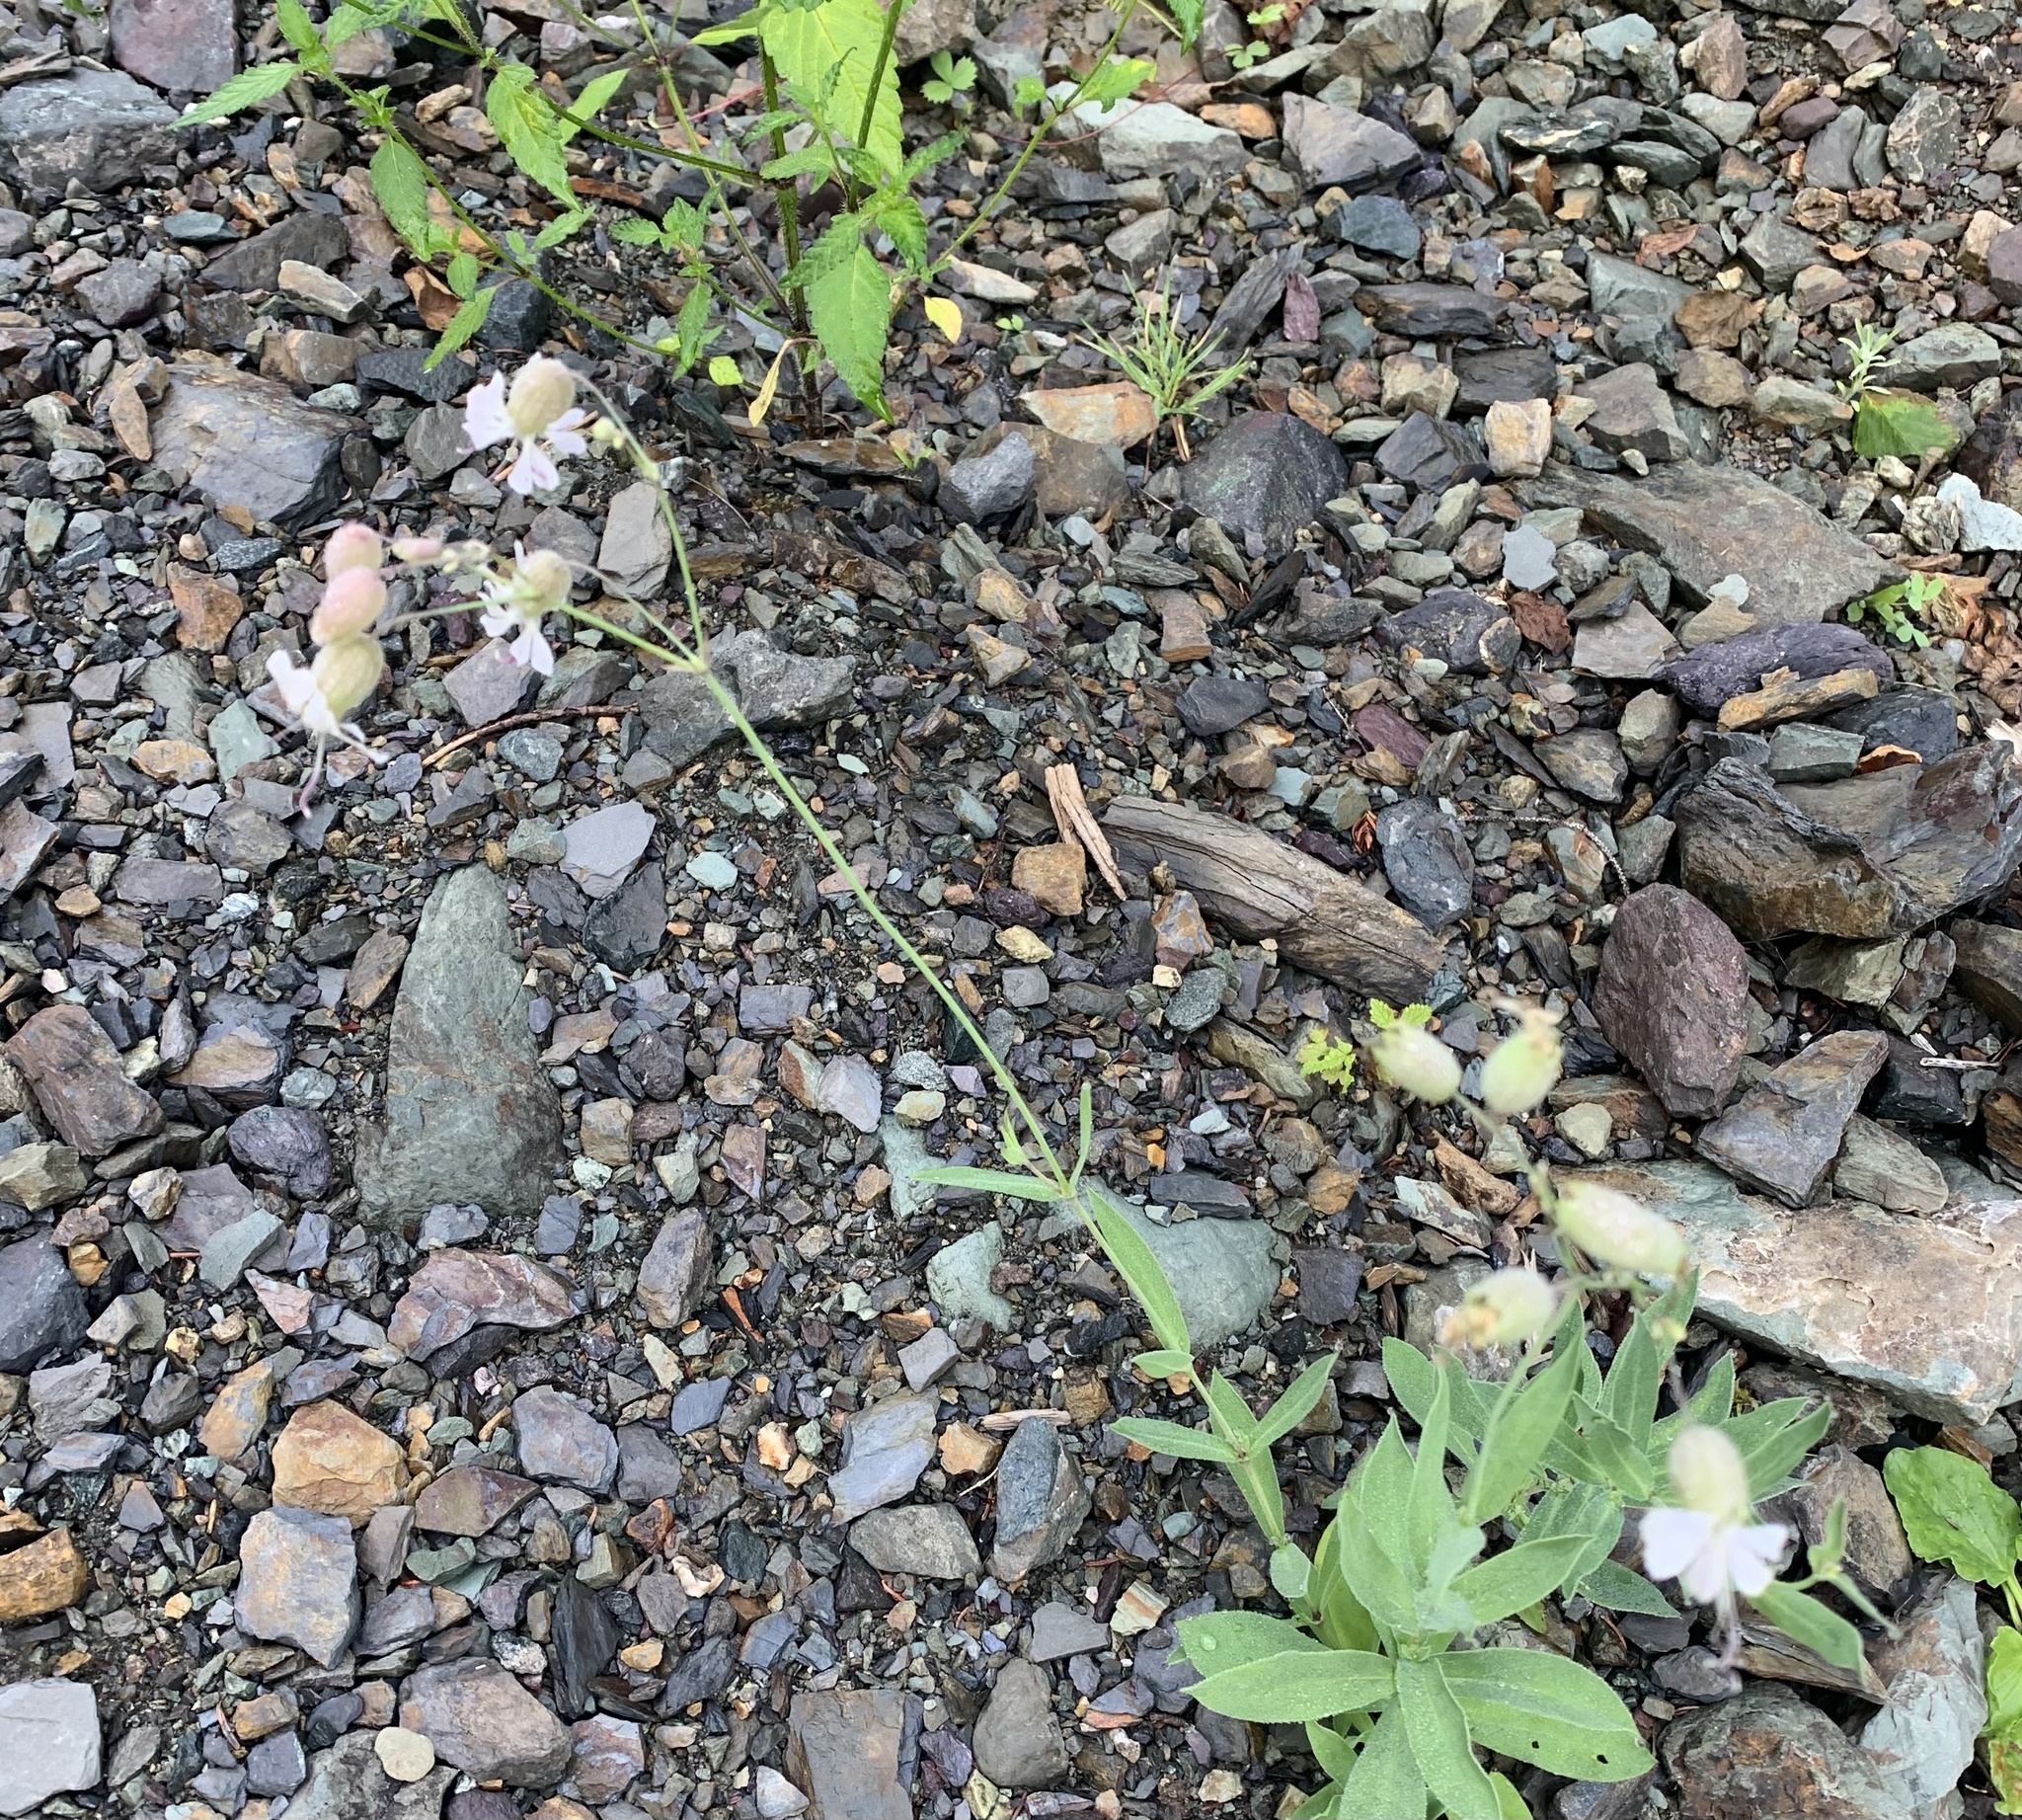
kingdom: Plantae
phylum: Tracheophyta
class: Magnoliopsida
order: Caryophyllales
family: Caryophyllaceae
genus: Silene
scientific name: Silene vulgaris
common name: Bladder campion
